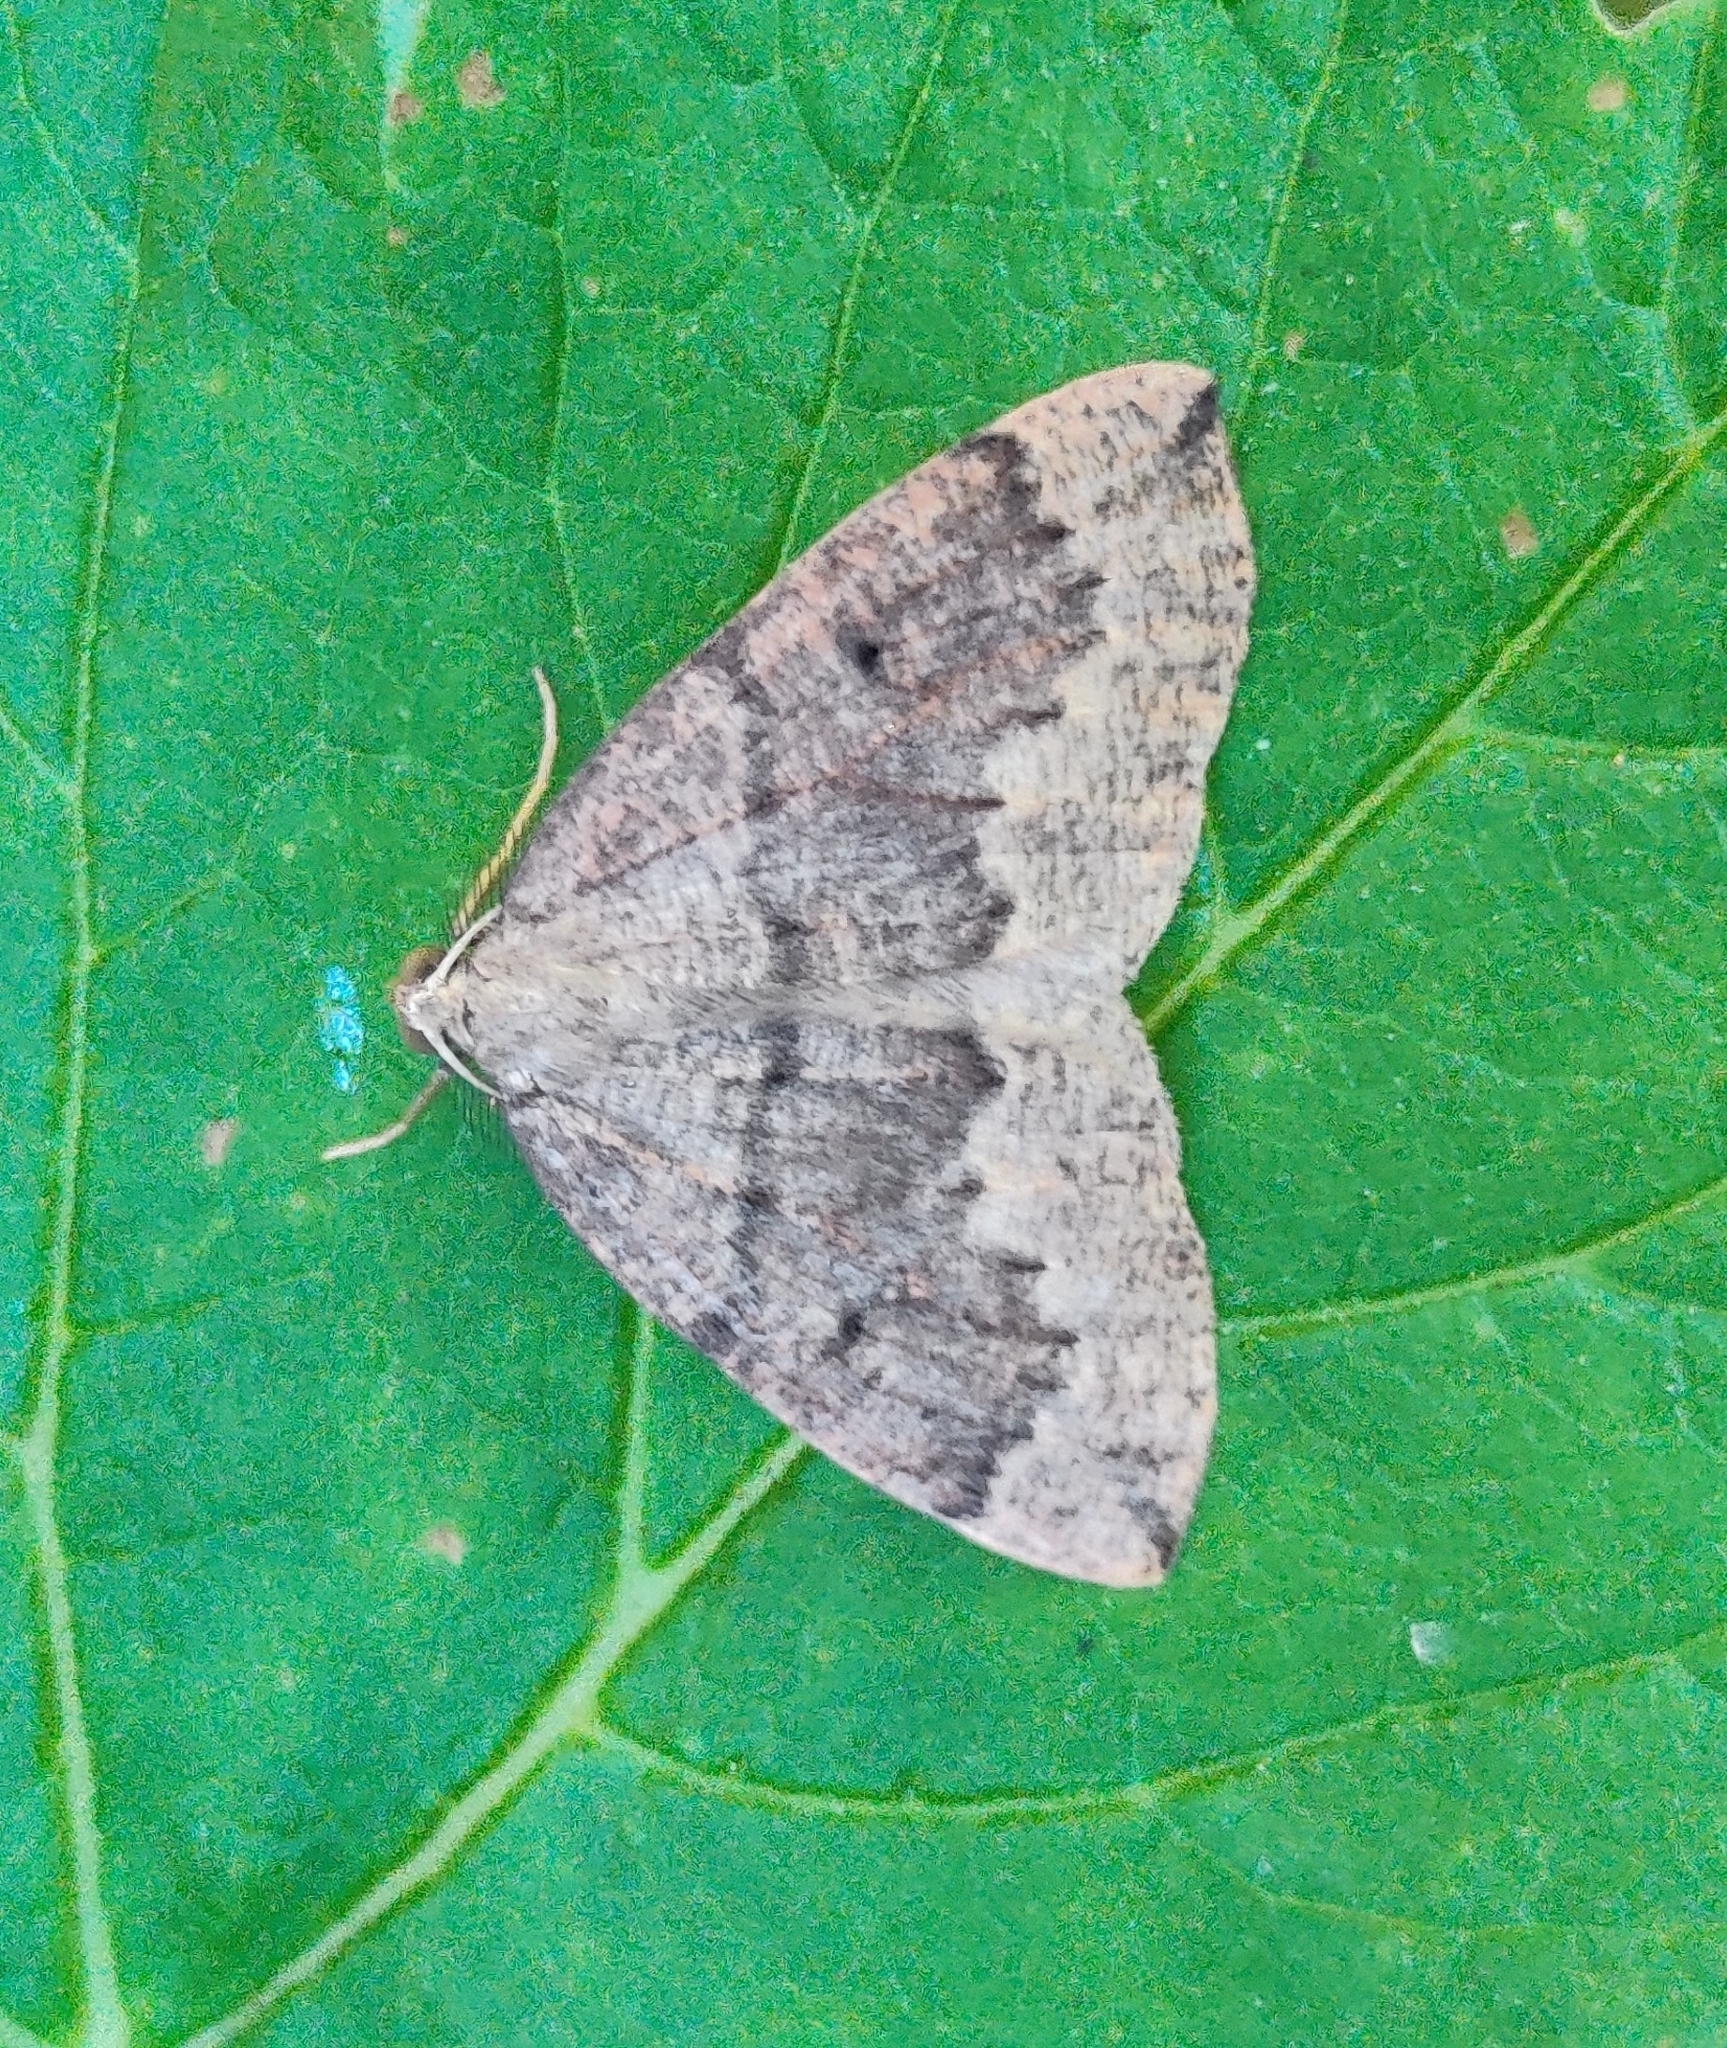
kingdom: Animalia
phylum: Arthropoda
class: Insecta
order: Lepidoptera
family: Geometridae
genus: Pungeleria
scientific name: Pungeleria capreolaria
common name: Banded pine carpet
